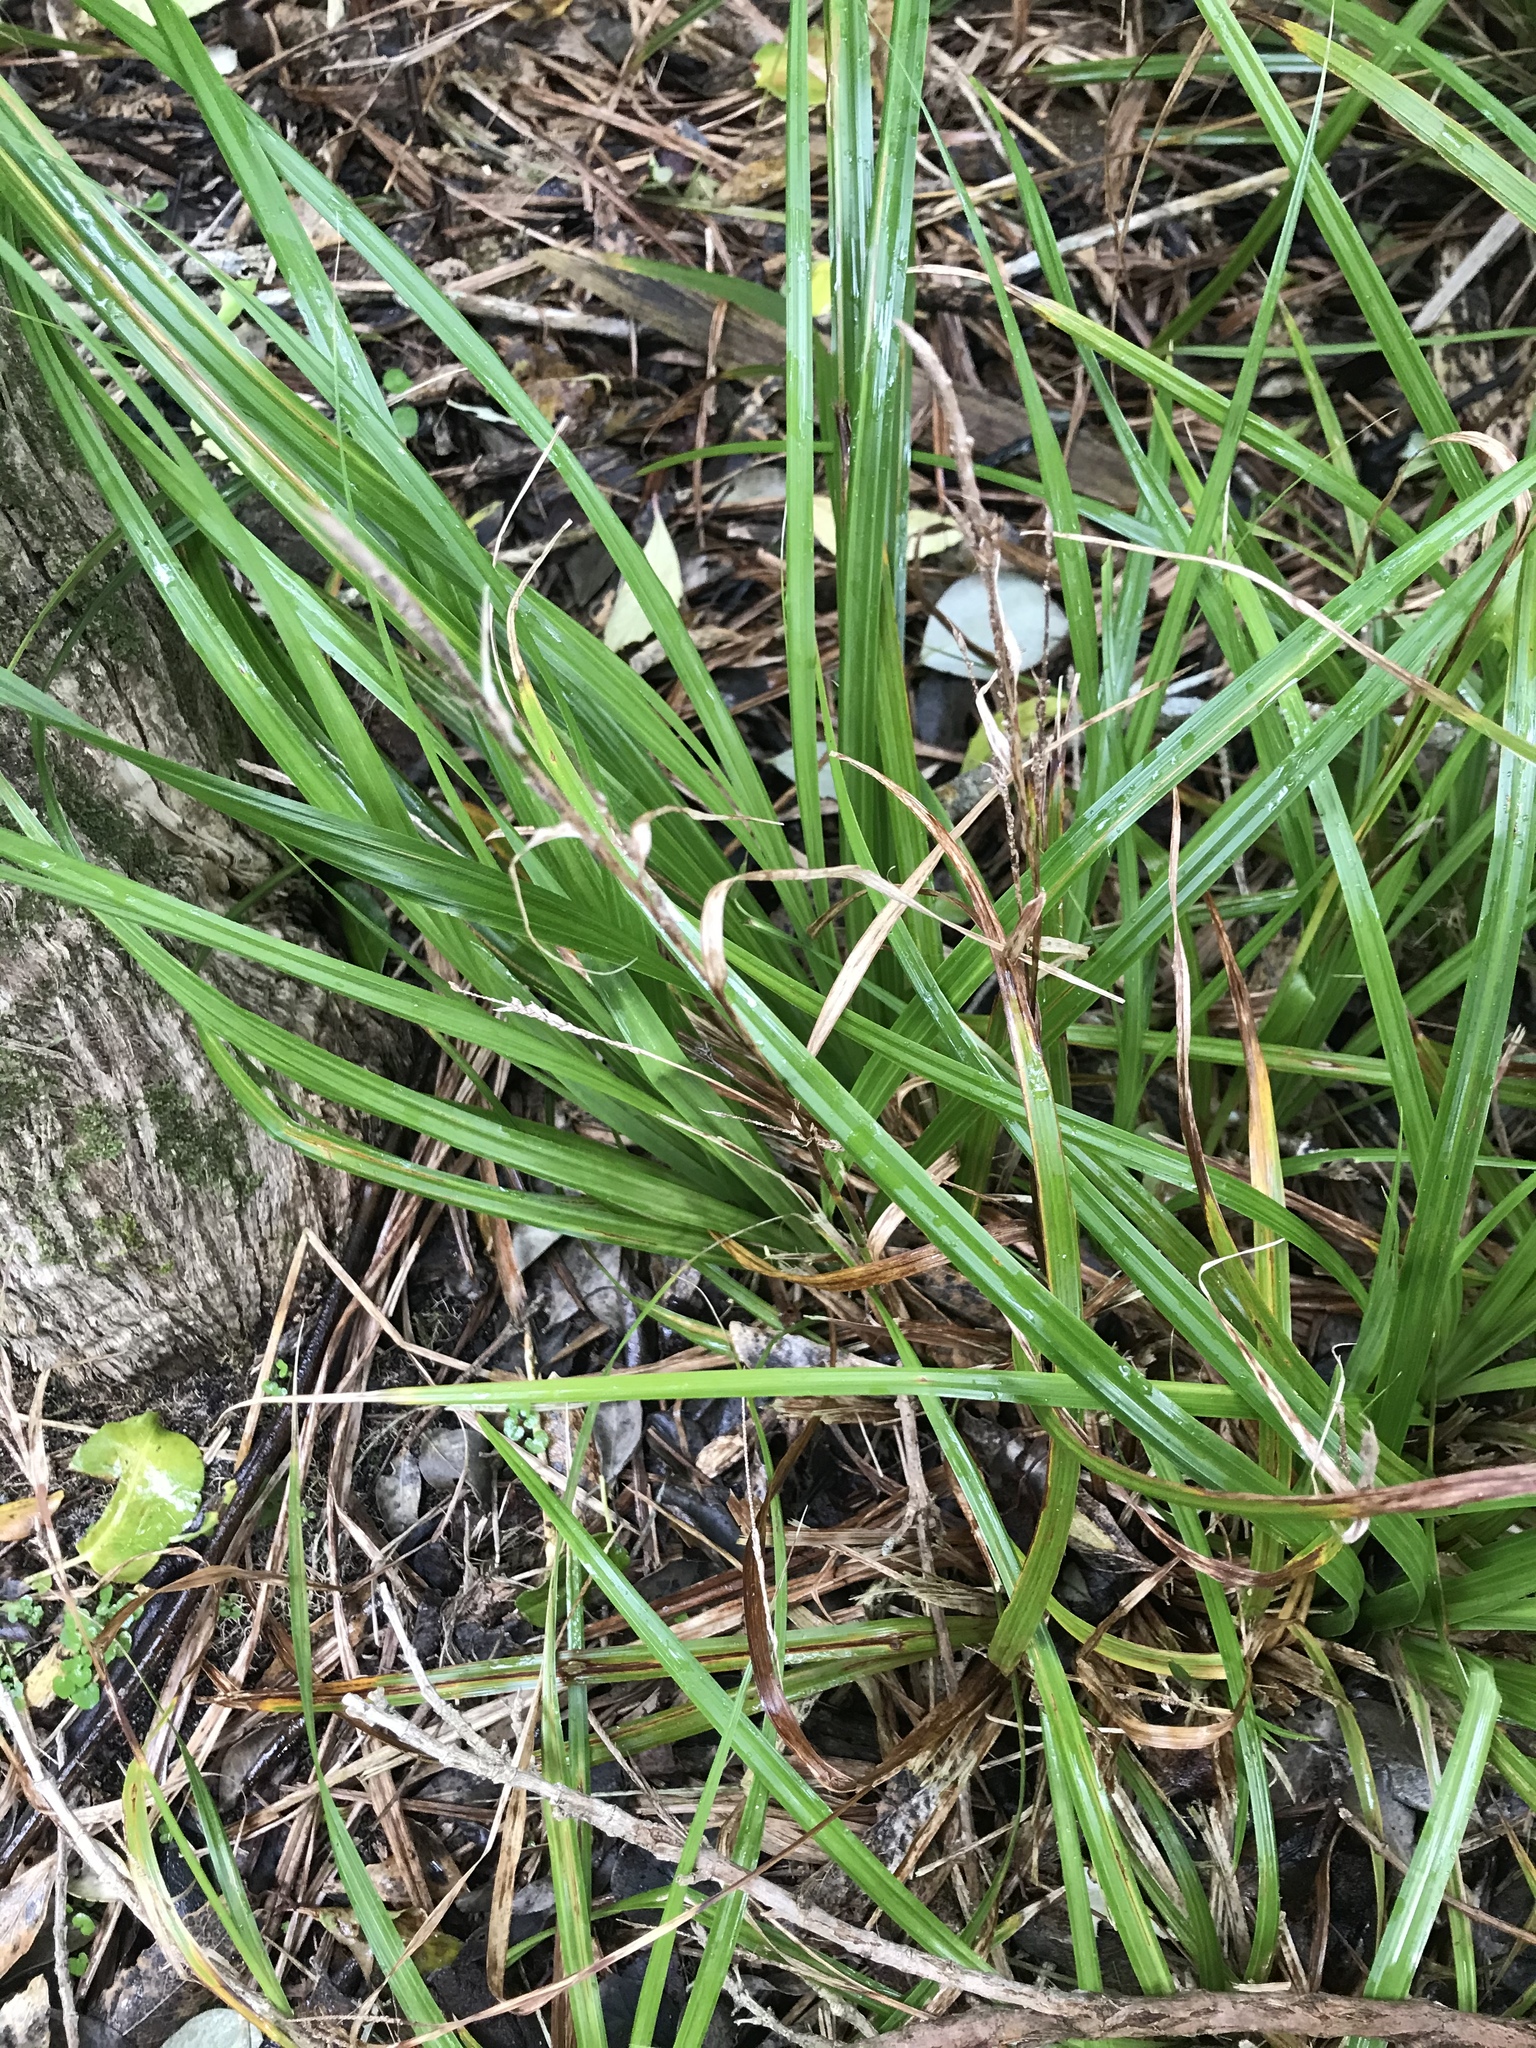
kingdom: Plantae
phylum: Tracheophyta
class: Liliopsida
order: Poales
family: Cyperaceae
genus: Carex
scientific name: Carex ventosa
